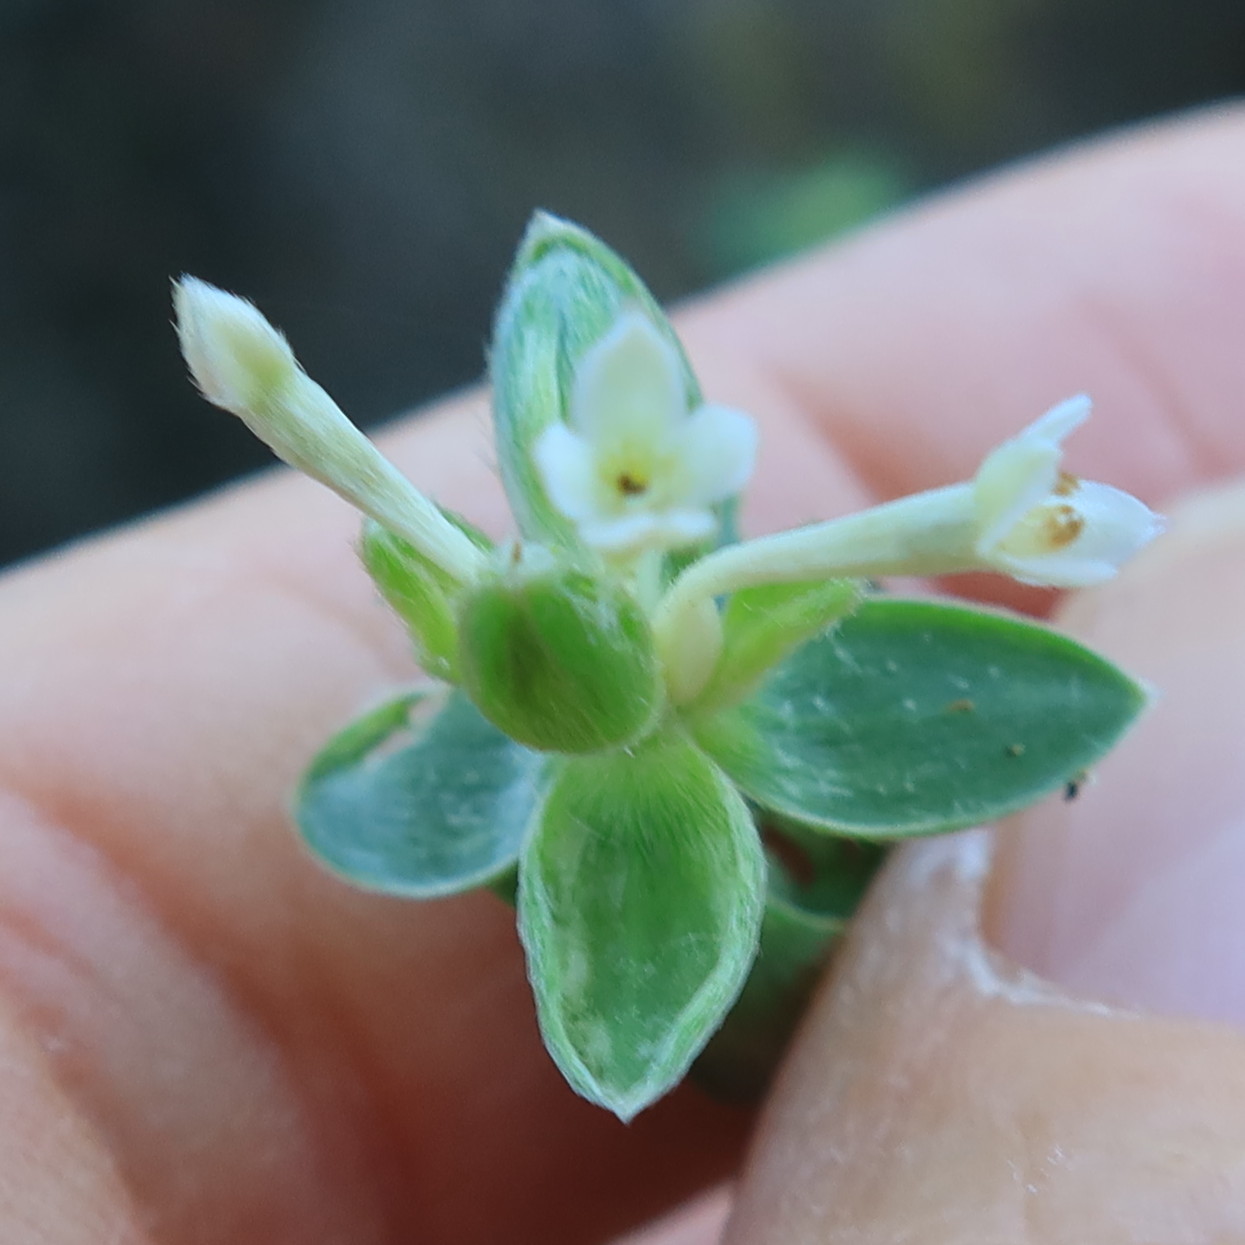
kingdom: Plantae
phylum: Tracheophyta
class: Magnoliopsida
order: Malvales
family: Thymelaeaceae
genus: Gnidia
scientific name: Gnidia sericea
